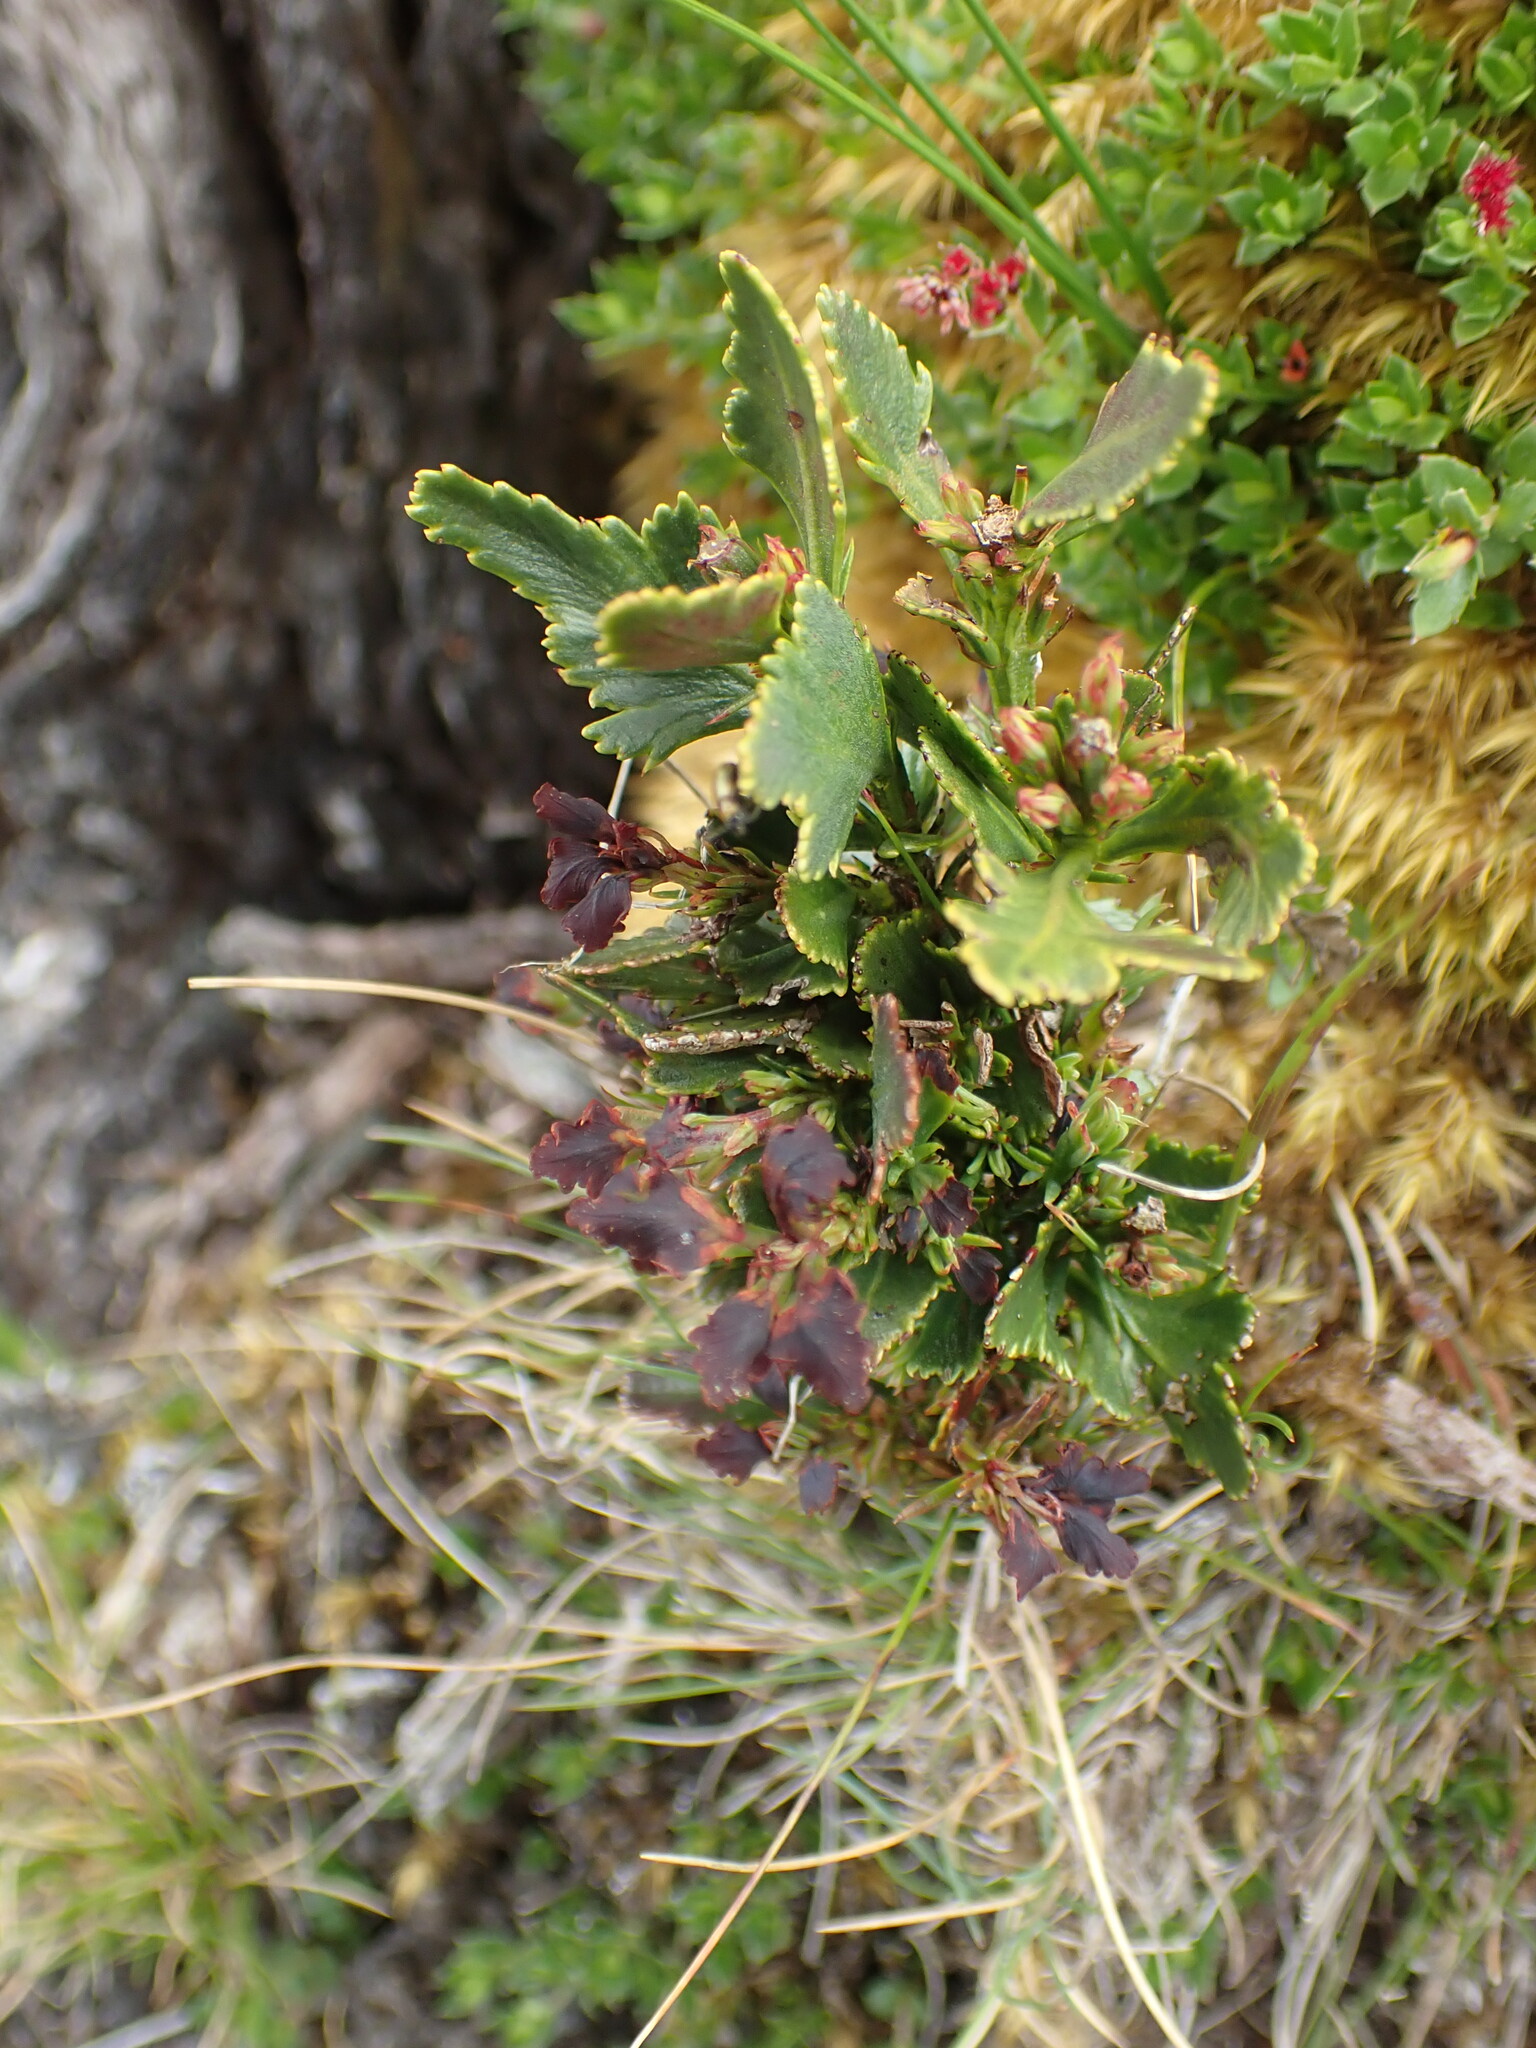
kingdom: Plantae
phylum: Tracheophyta
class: Pinopsida
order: Pinales
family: Phyllocladaceae
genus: Phyllocladus
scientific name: Phyllocladus aspleniifolius
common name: Celery-top pine
